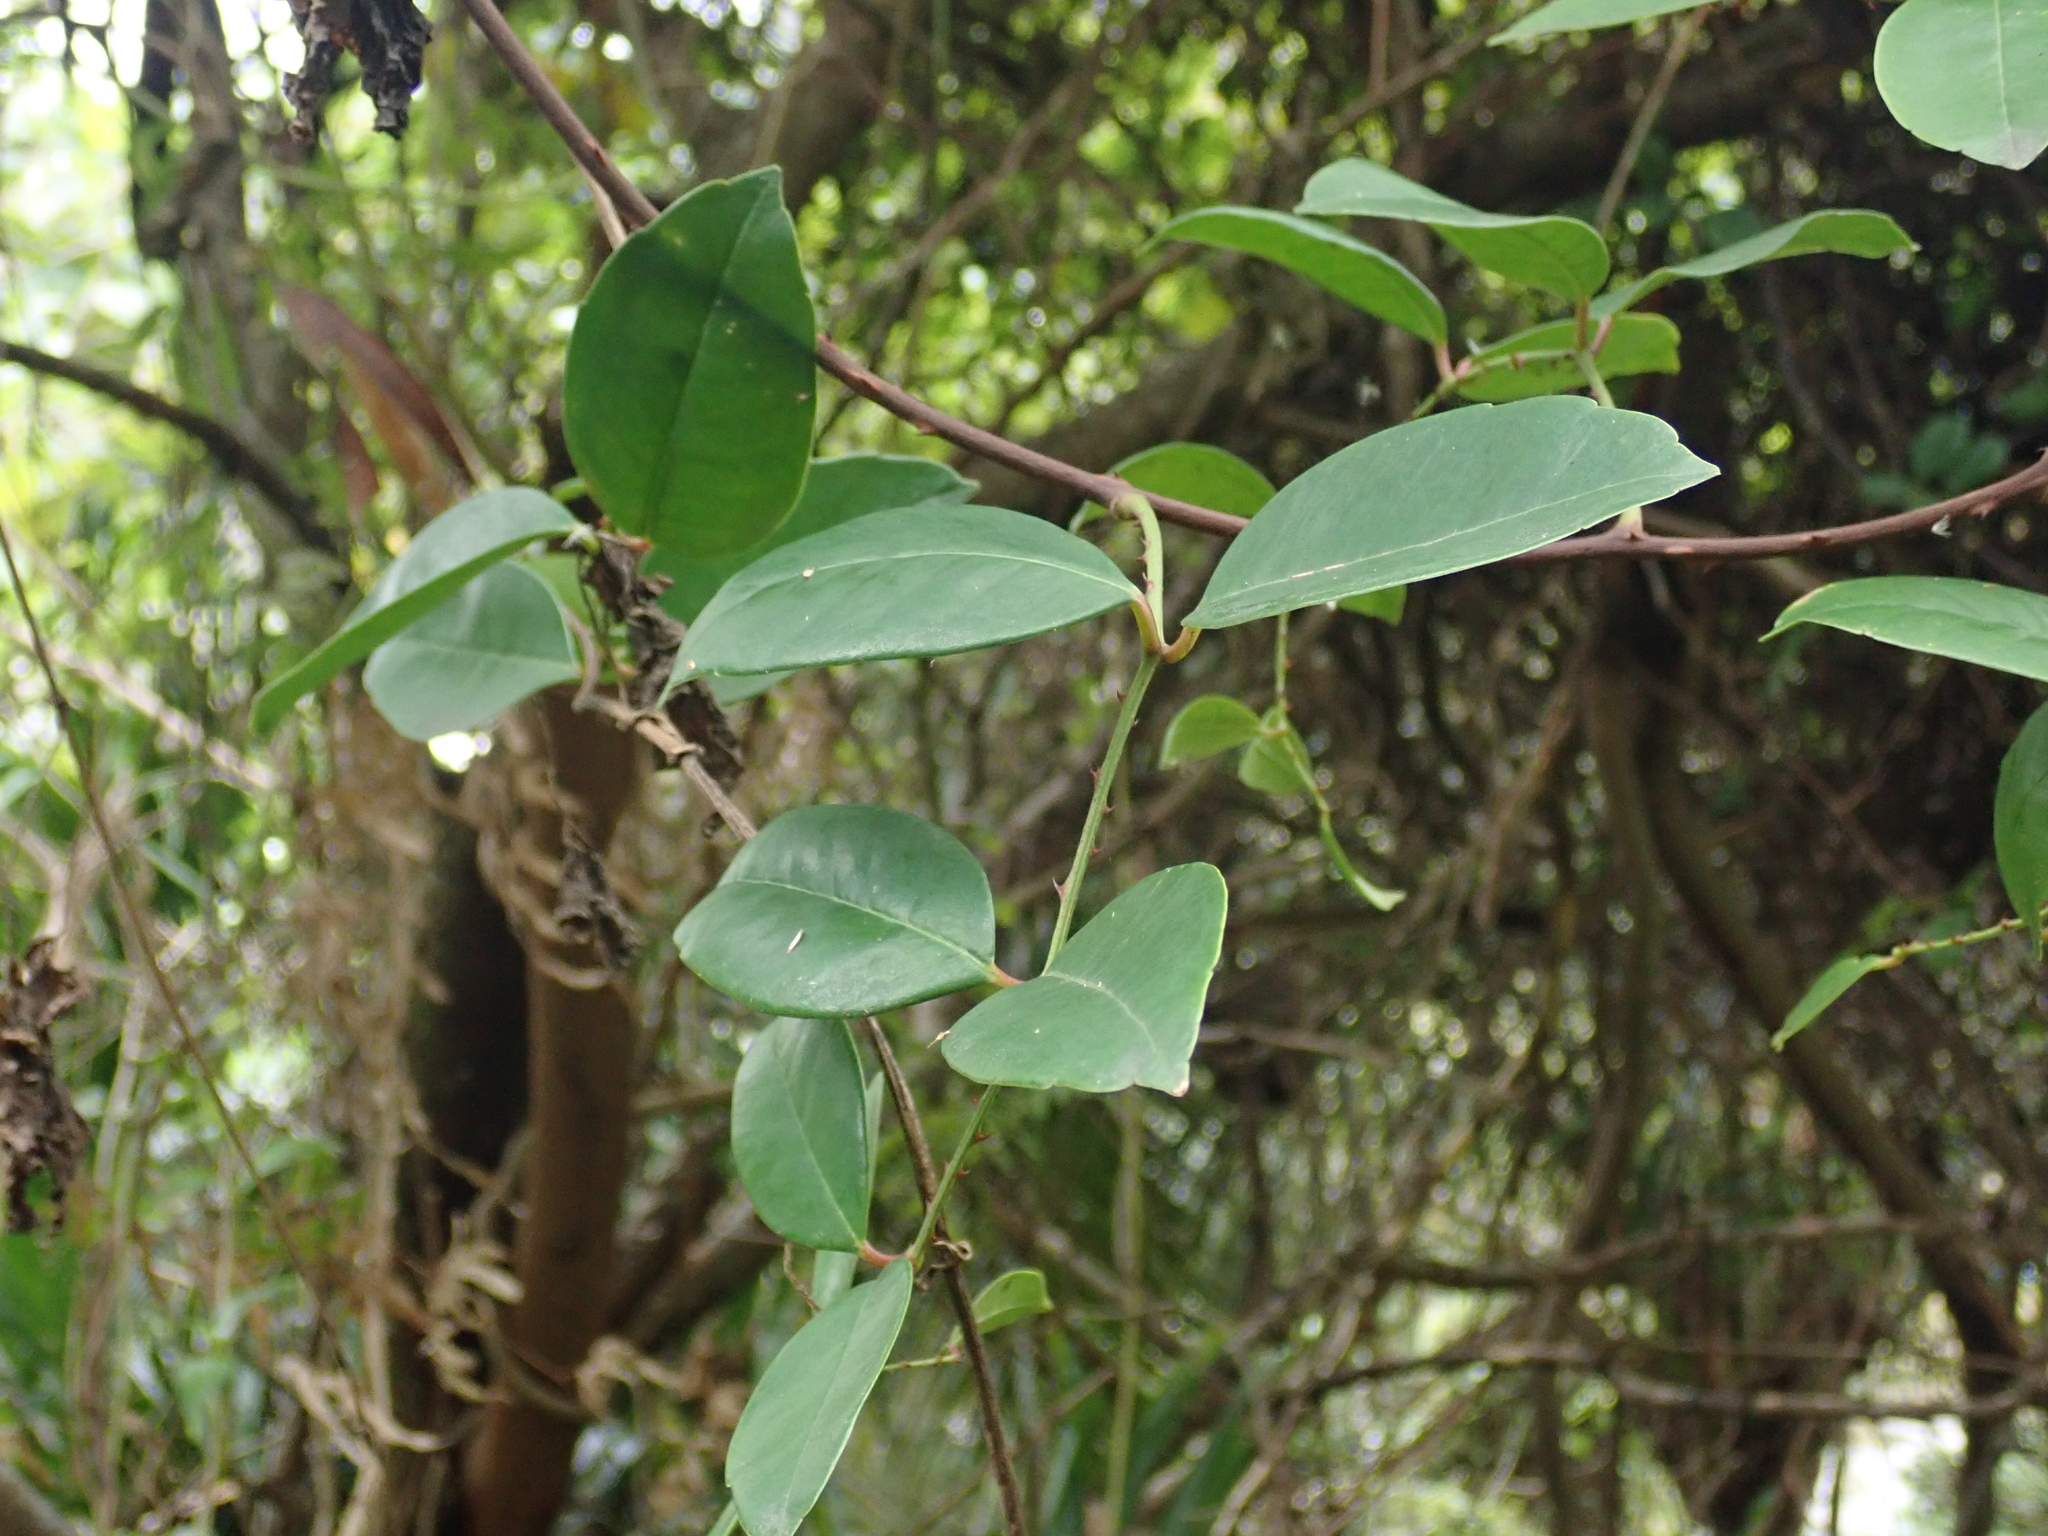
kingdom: Plantae
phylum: Tracheophyta
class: Magnoliopsida
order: Sapindales
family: Rutaceae
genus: Zanthoxylum
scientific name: Zanthoxylum nitidum
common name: Shiny-leaf prickly-ash
